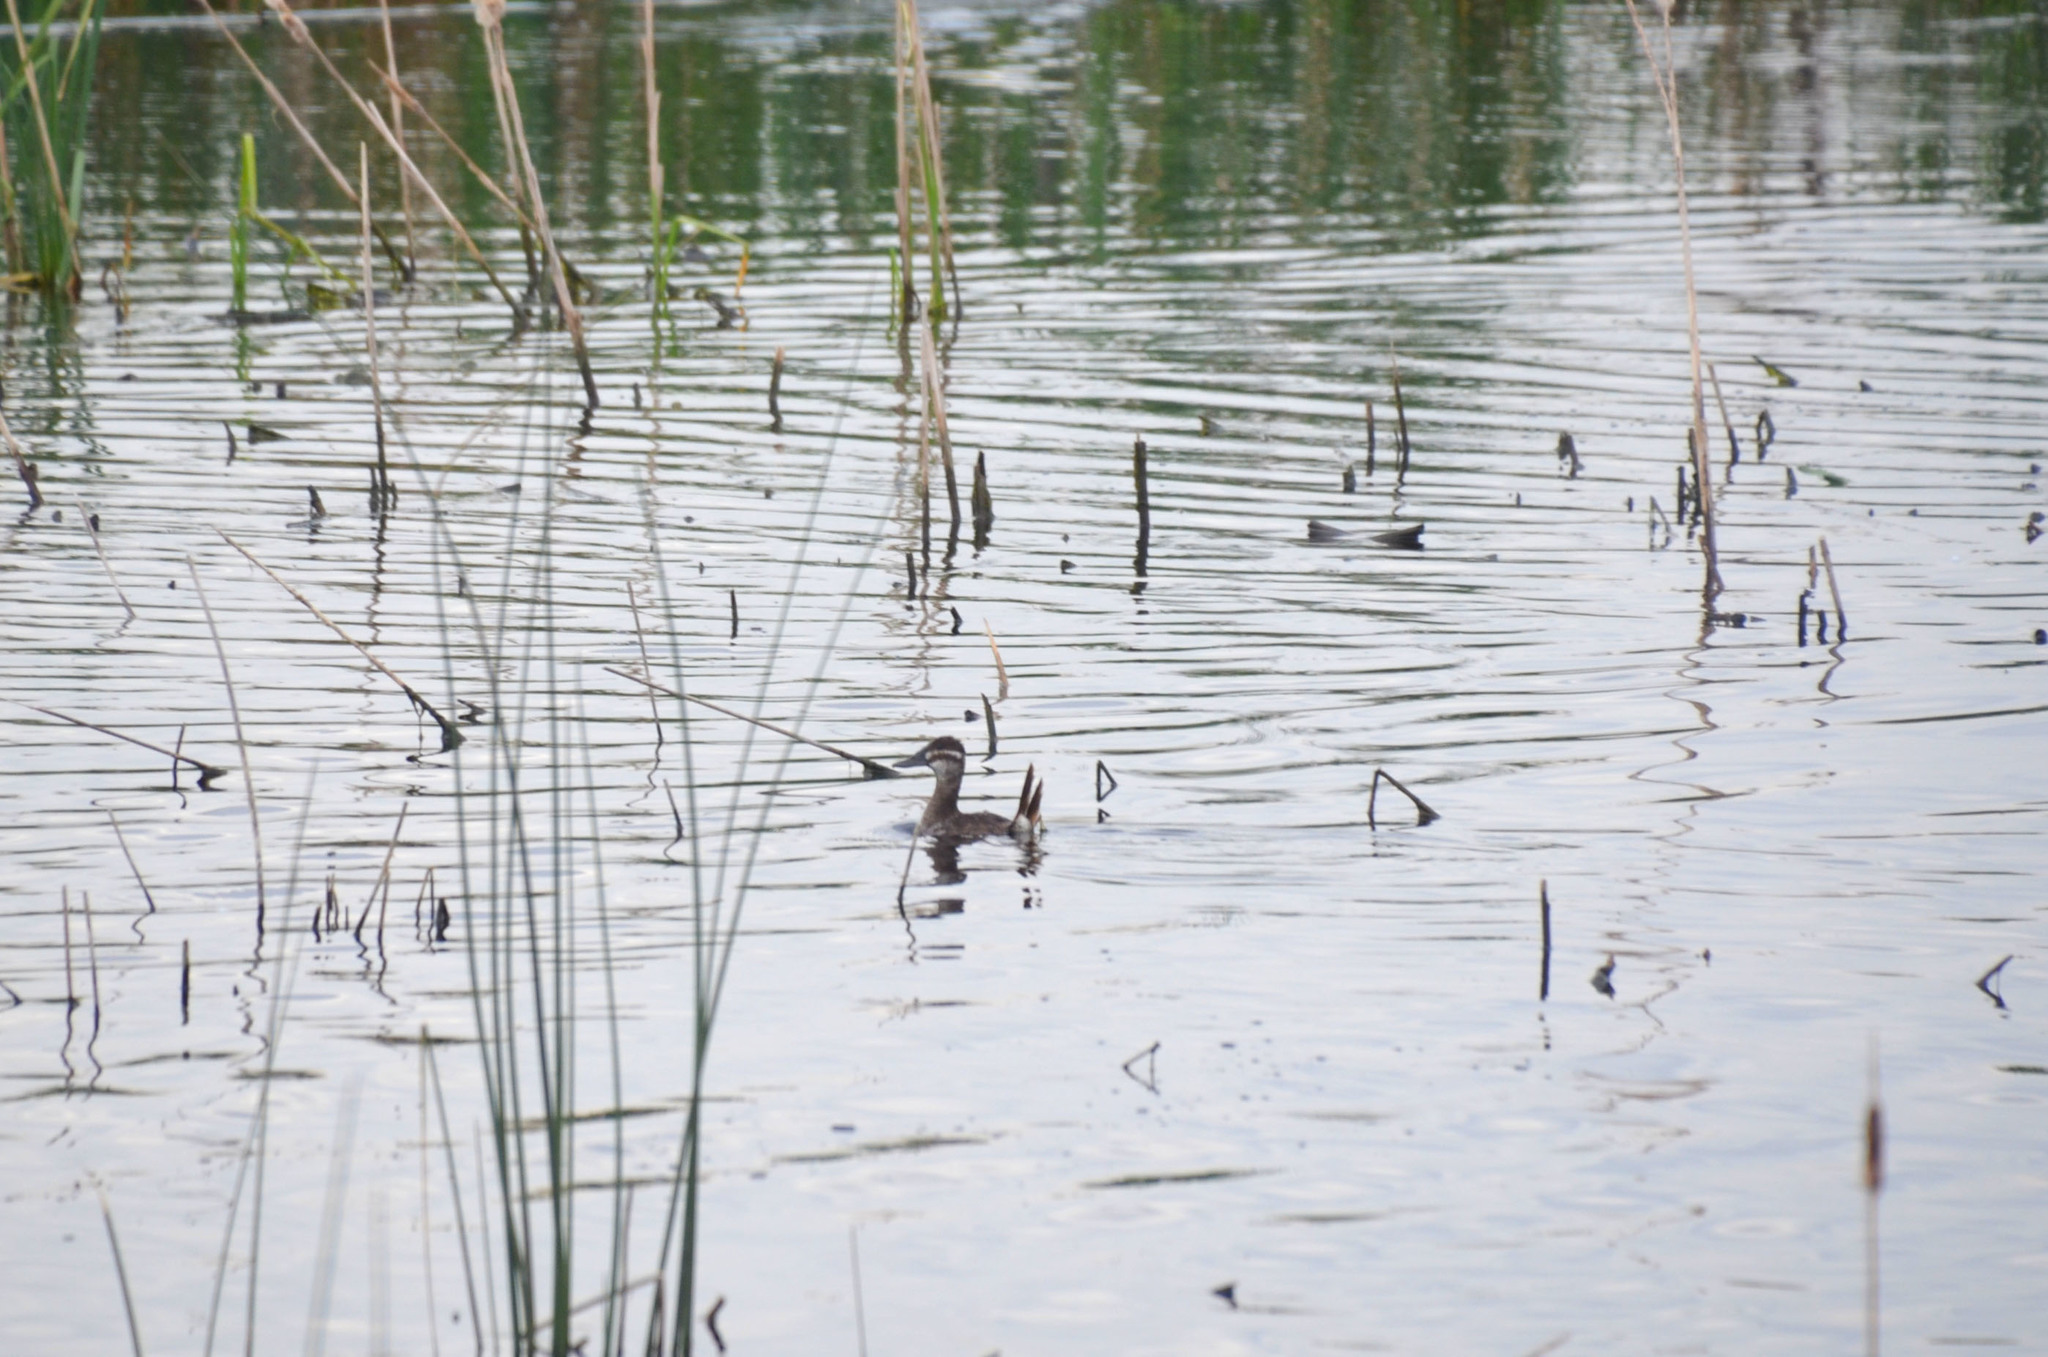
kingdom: Animalia
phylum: Chordata
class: Aves
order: Anseriformes
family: Anatidae
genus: Oxyura
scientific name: Oxyura vittata
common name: Lake duck
